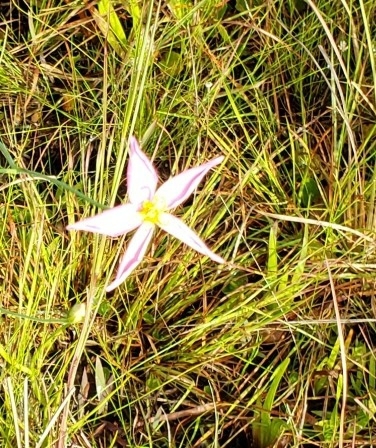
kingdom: Plantae
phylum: Tracheophyta
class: Magnoliopsida
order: Gentianales
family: Gentianaceae
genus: Sabatia
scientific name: Sabatia stellaris
